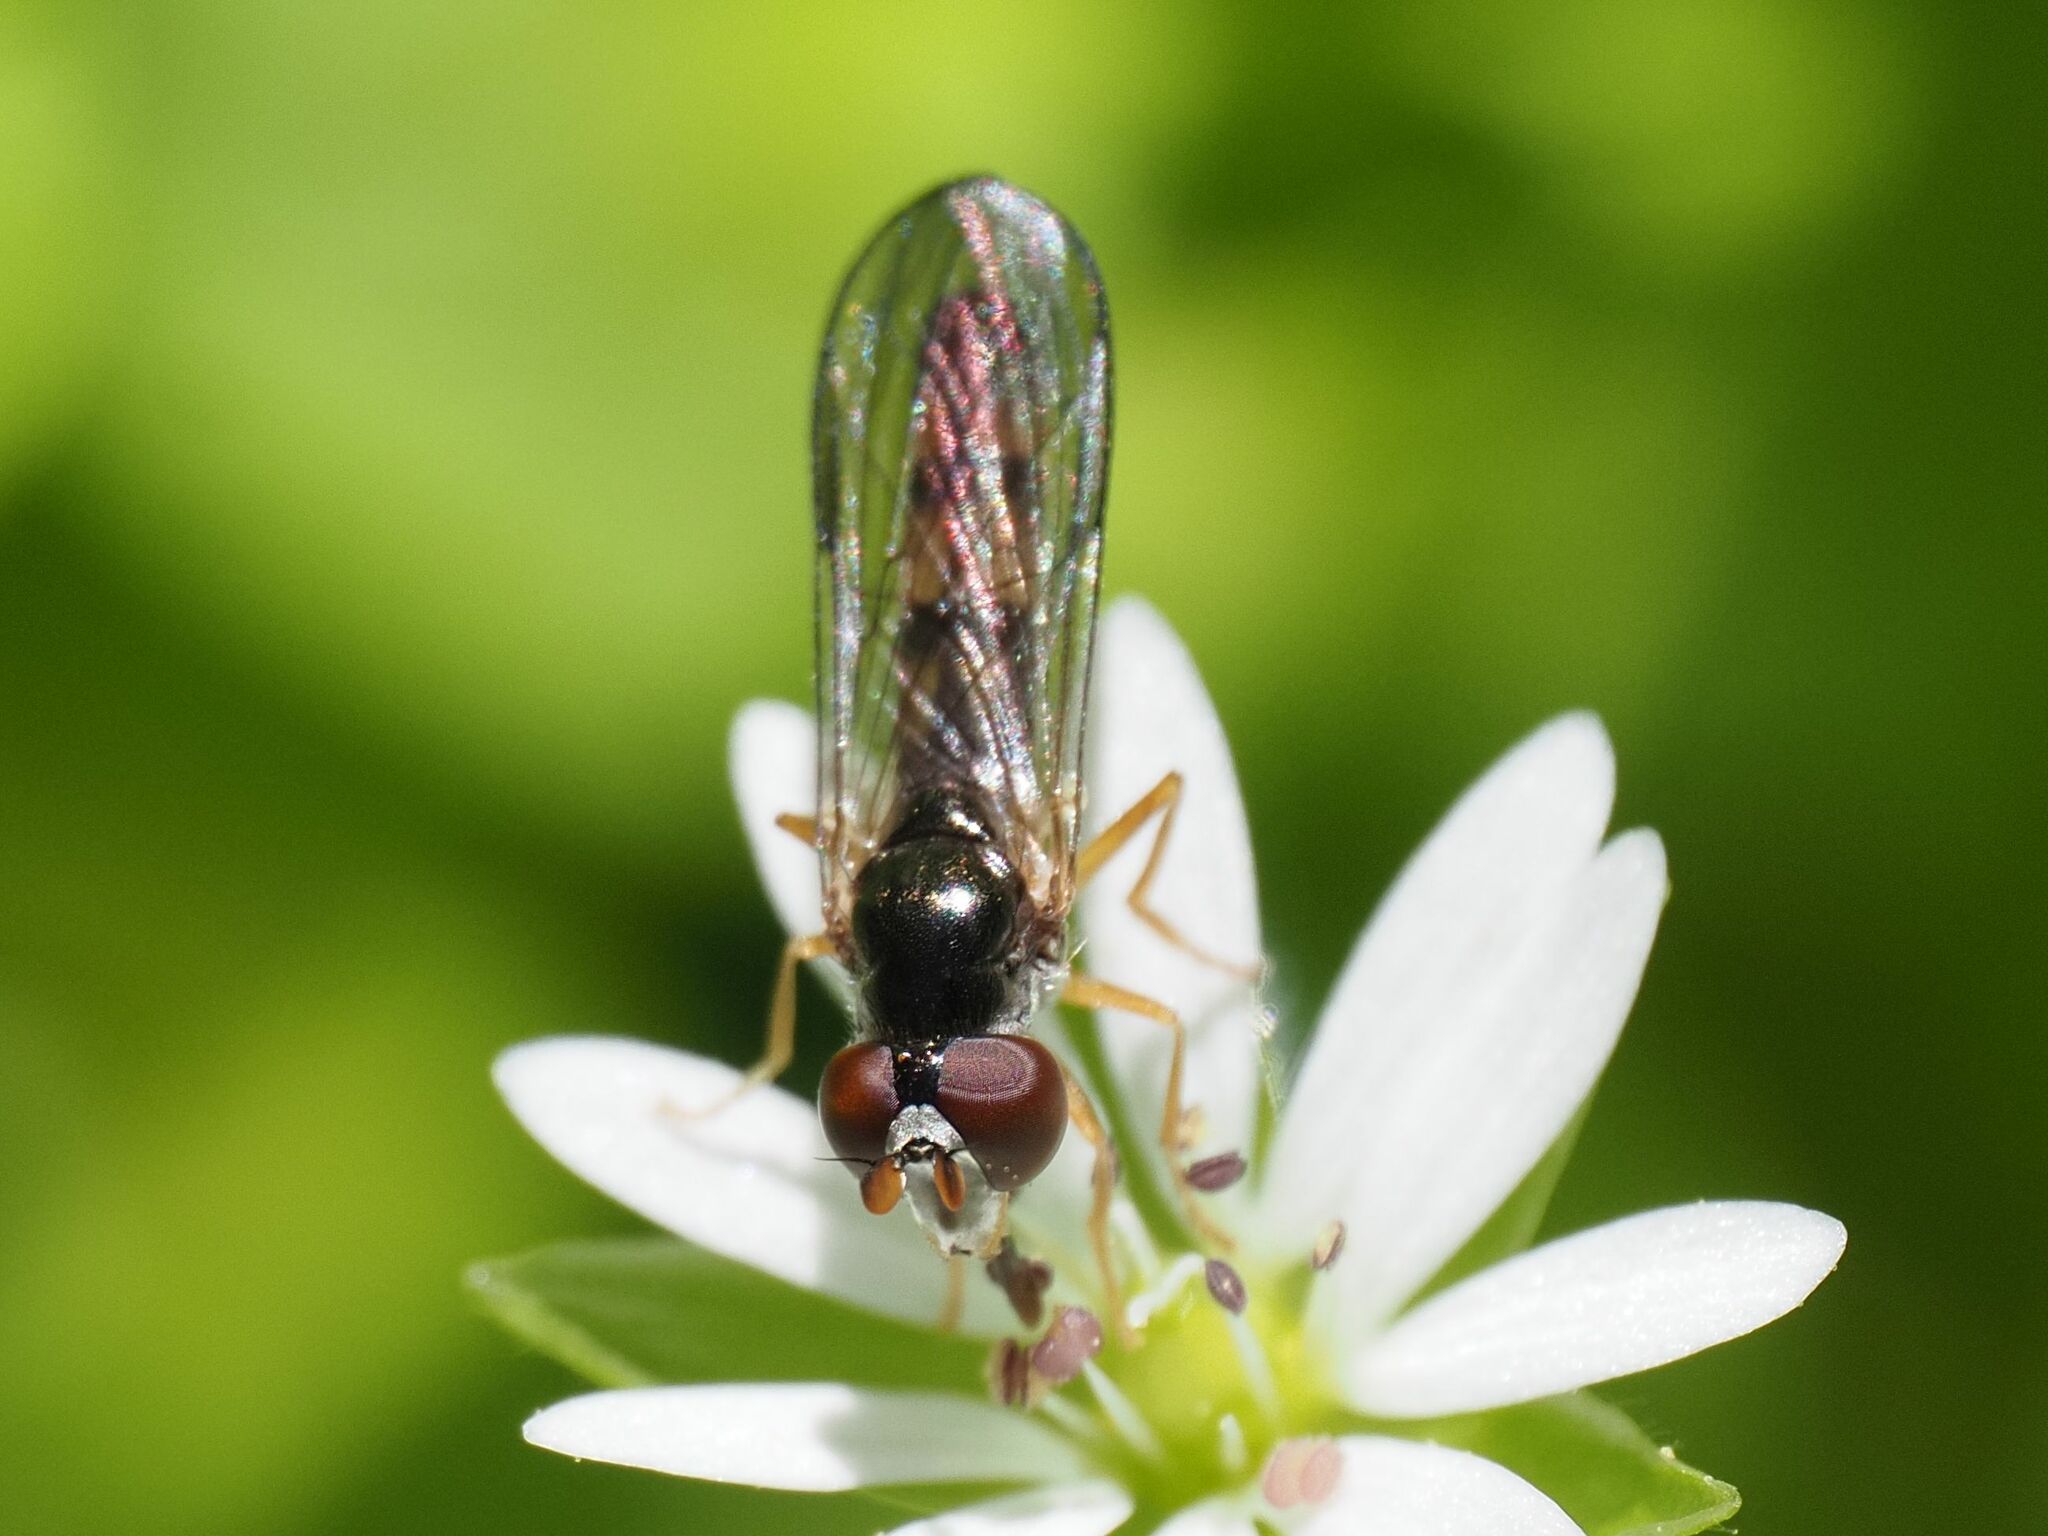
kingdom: Animalia
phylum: Arthropoda
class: Insecta
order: Diptera
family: Syrphidae
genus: Chamaesyrphus
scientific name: Chamaesyrphus scaevoides
